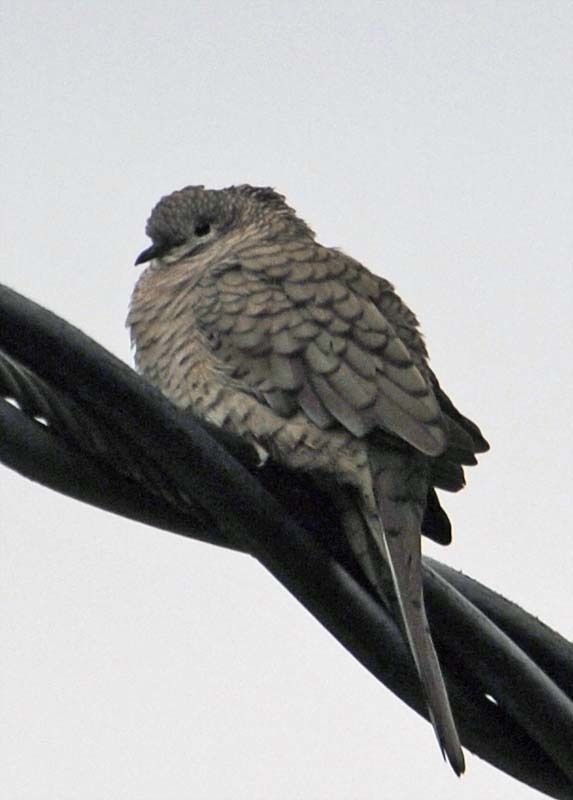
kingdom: Animalia
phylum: Chordata
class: Aves
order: Columbiformes
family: Columbidae
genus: Columbina
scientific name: Columbina inca
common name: Inca dove
